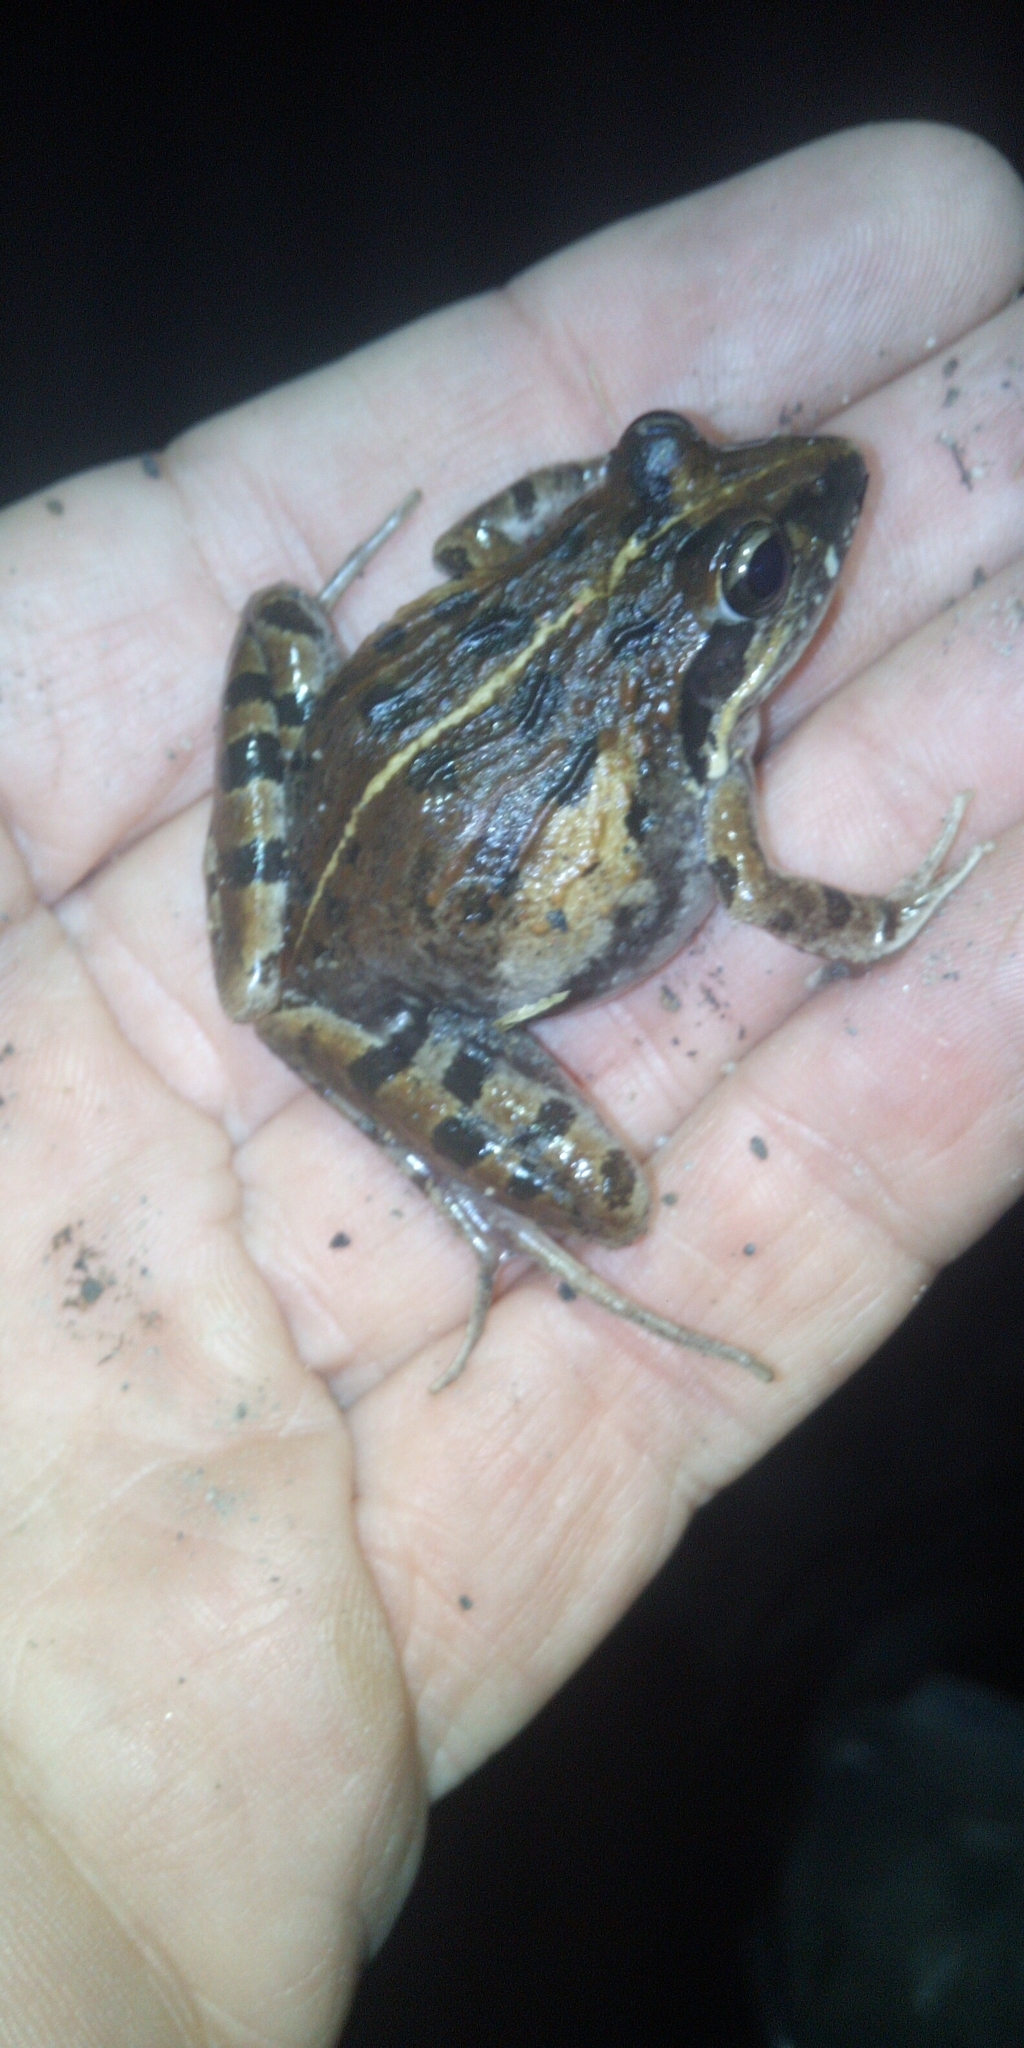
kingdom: Animalia
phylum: Chordata
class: Amphibia
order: Anura
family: Pyxicephalidae
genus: Strongylopus
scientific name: Strongylopus grayii
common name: Gray's stream frog
